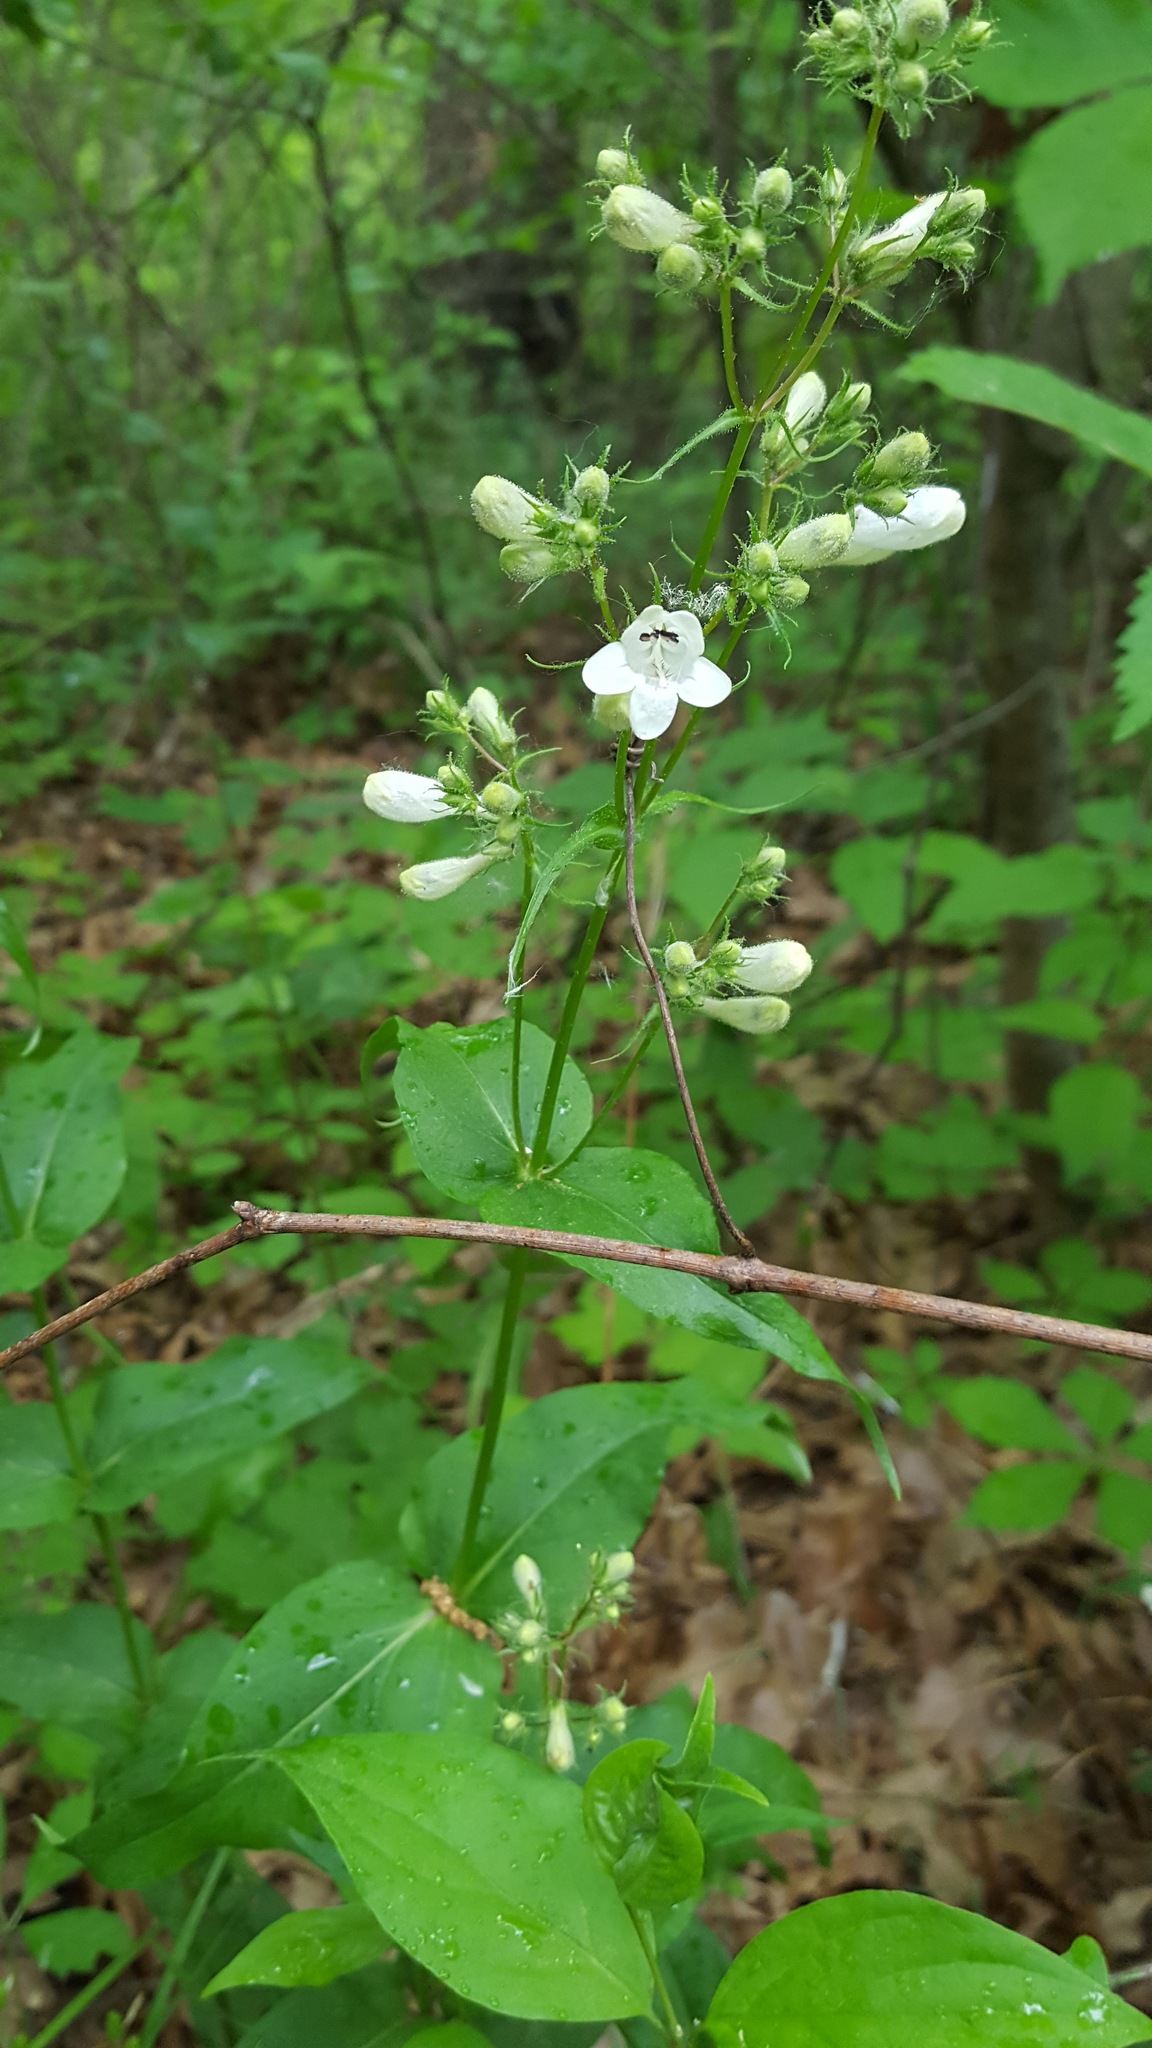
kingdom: Plantae
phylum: Tracheophyta
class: Magnoliopsida
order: Lamiales
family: Plantaginaceae
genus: Penstemon
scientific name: Penstemon digitalis
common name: Foxglove beardtongue
